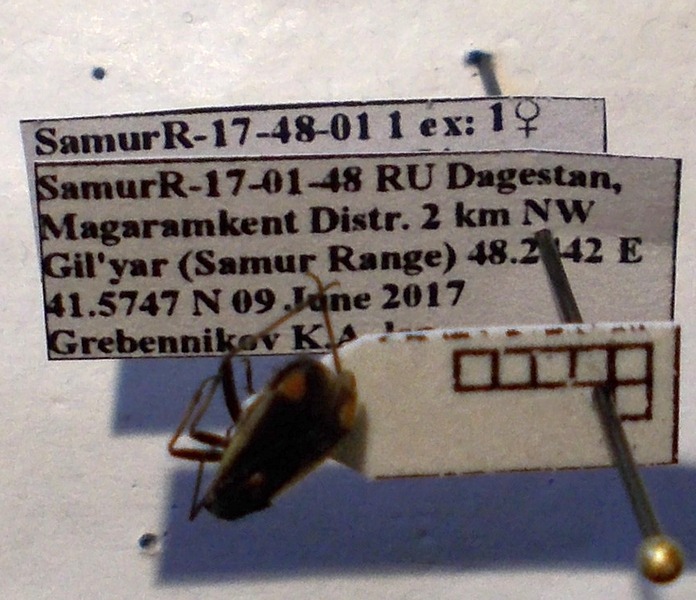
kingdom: Animalia
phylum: Arthropoda
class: Insecta
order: Hemiptera
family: Miridae
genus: Capsodes
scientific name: Capsodes gothicus
